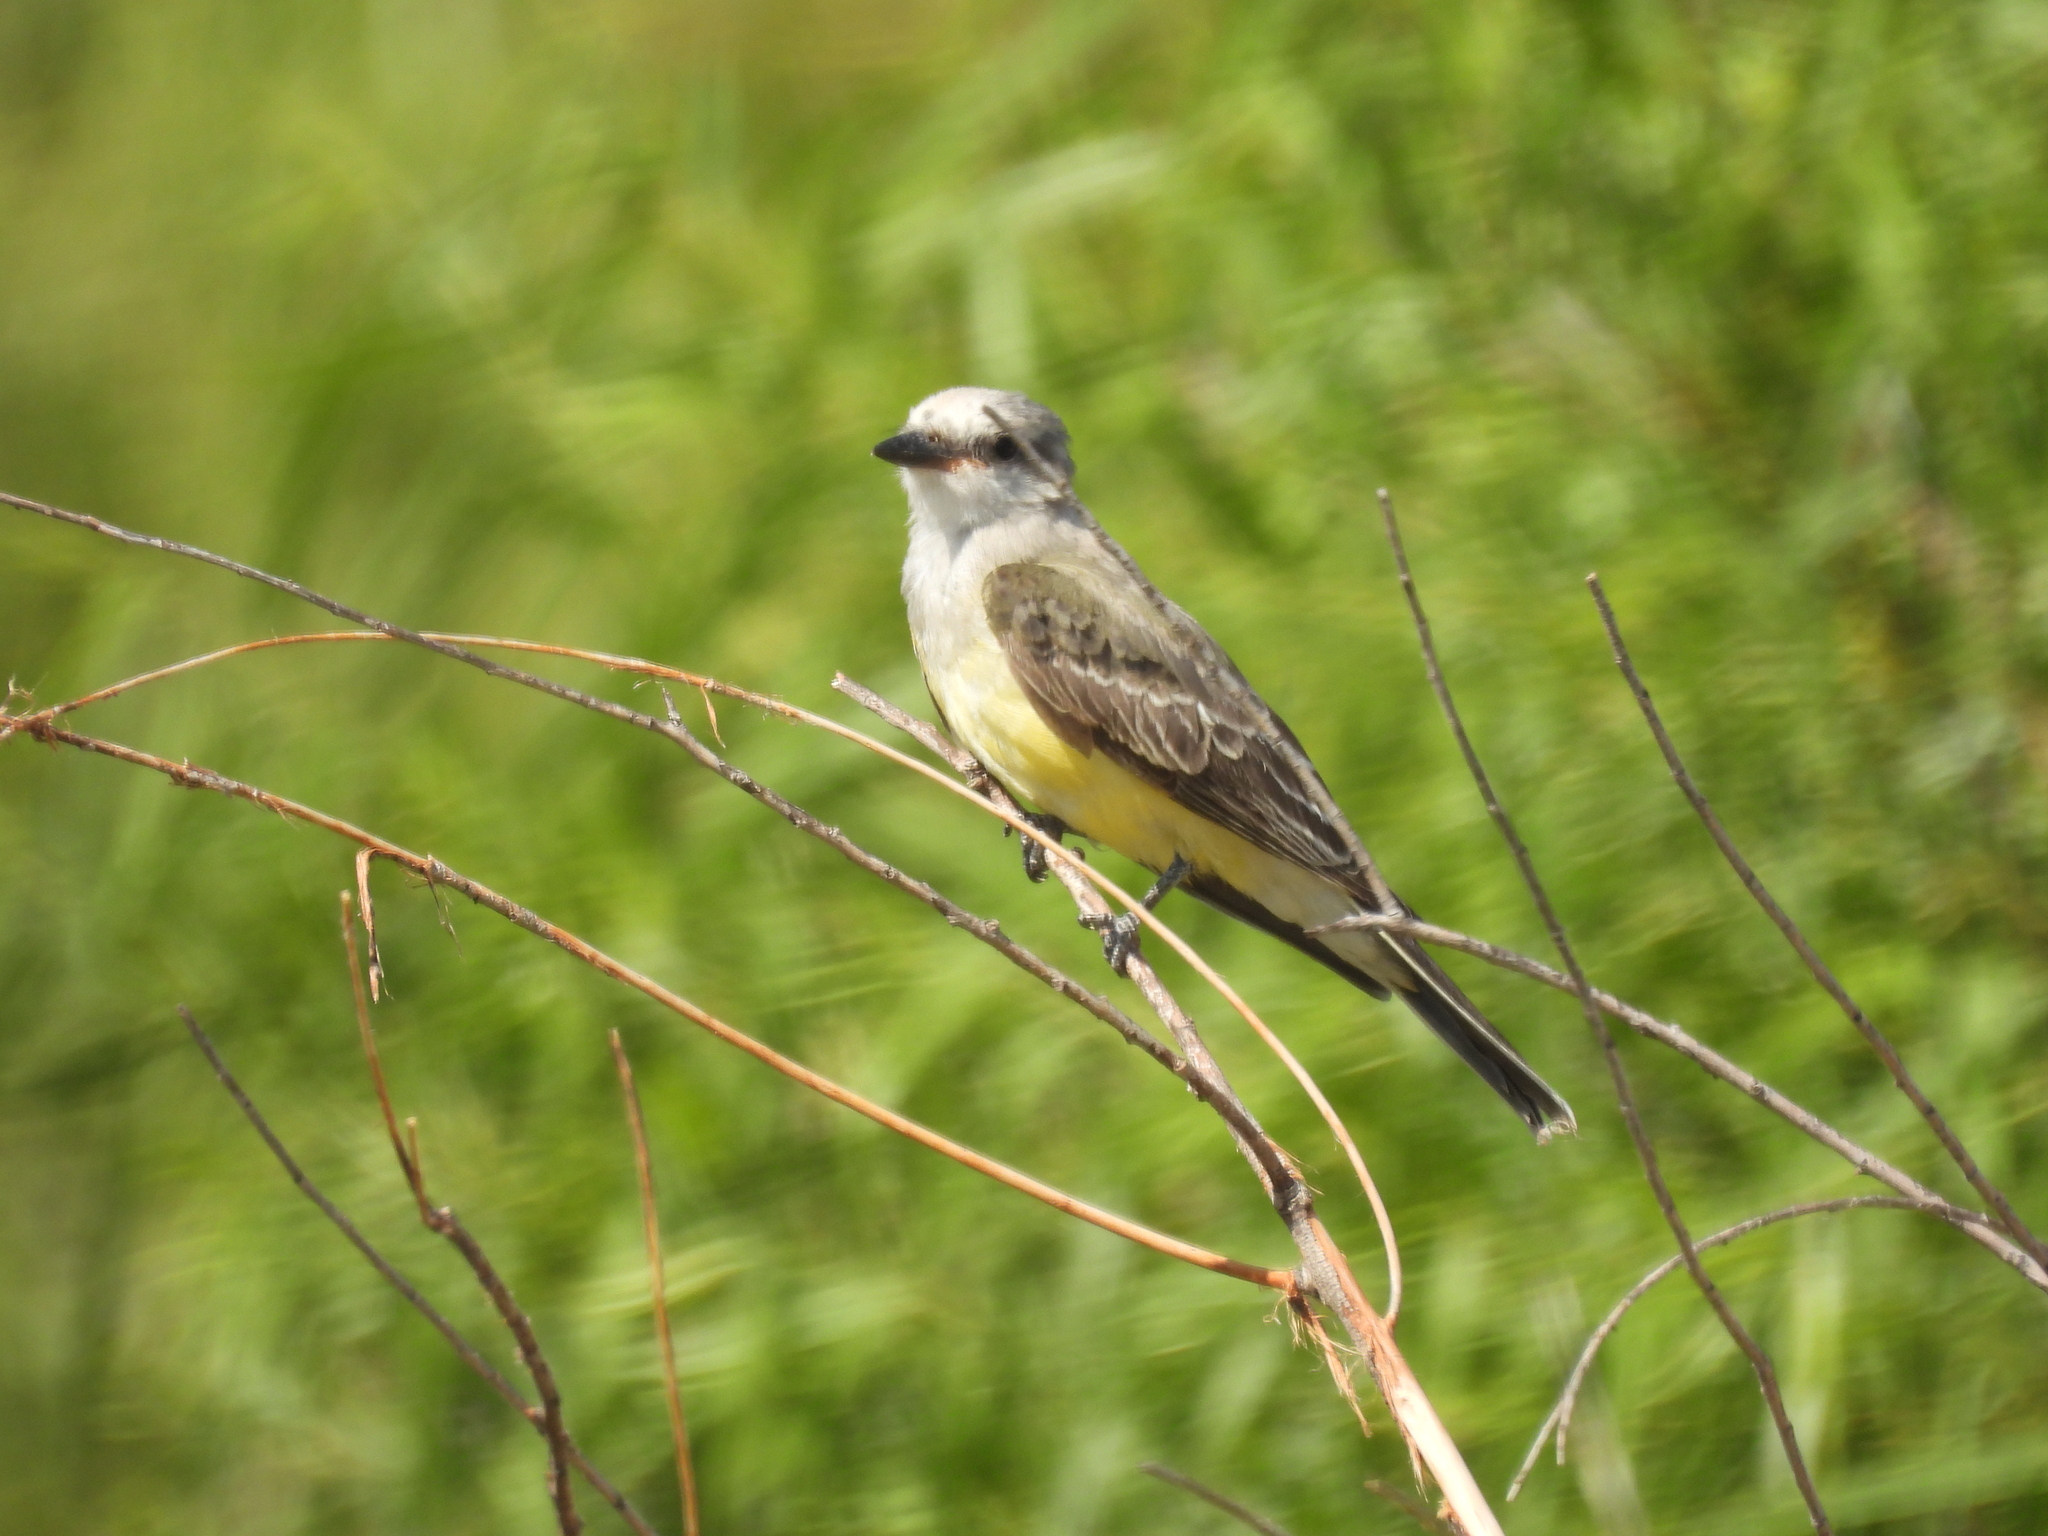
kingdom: Animalia
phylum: Chordata
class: Aves
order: Passeriformes
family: Tyrannidae
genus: Tyrannus
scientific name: Tyrannus verticalis
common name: Western kingbird
